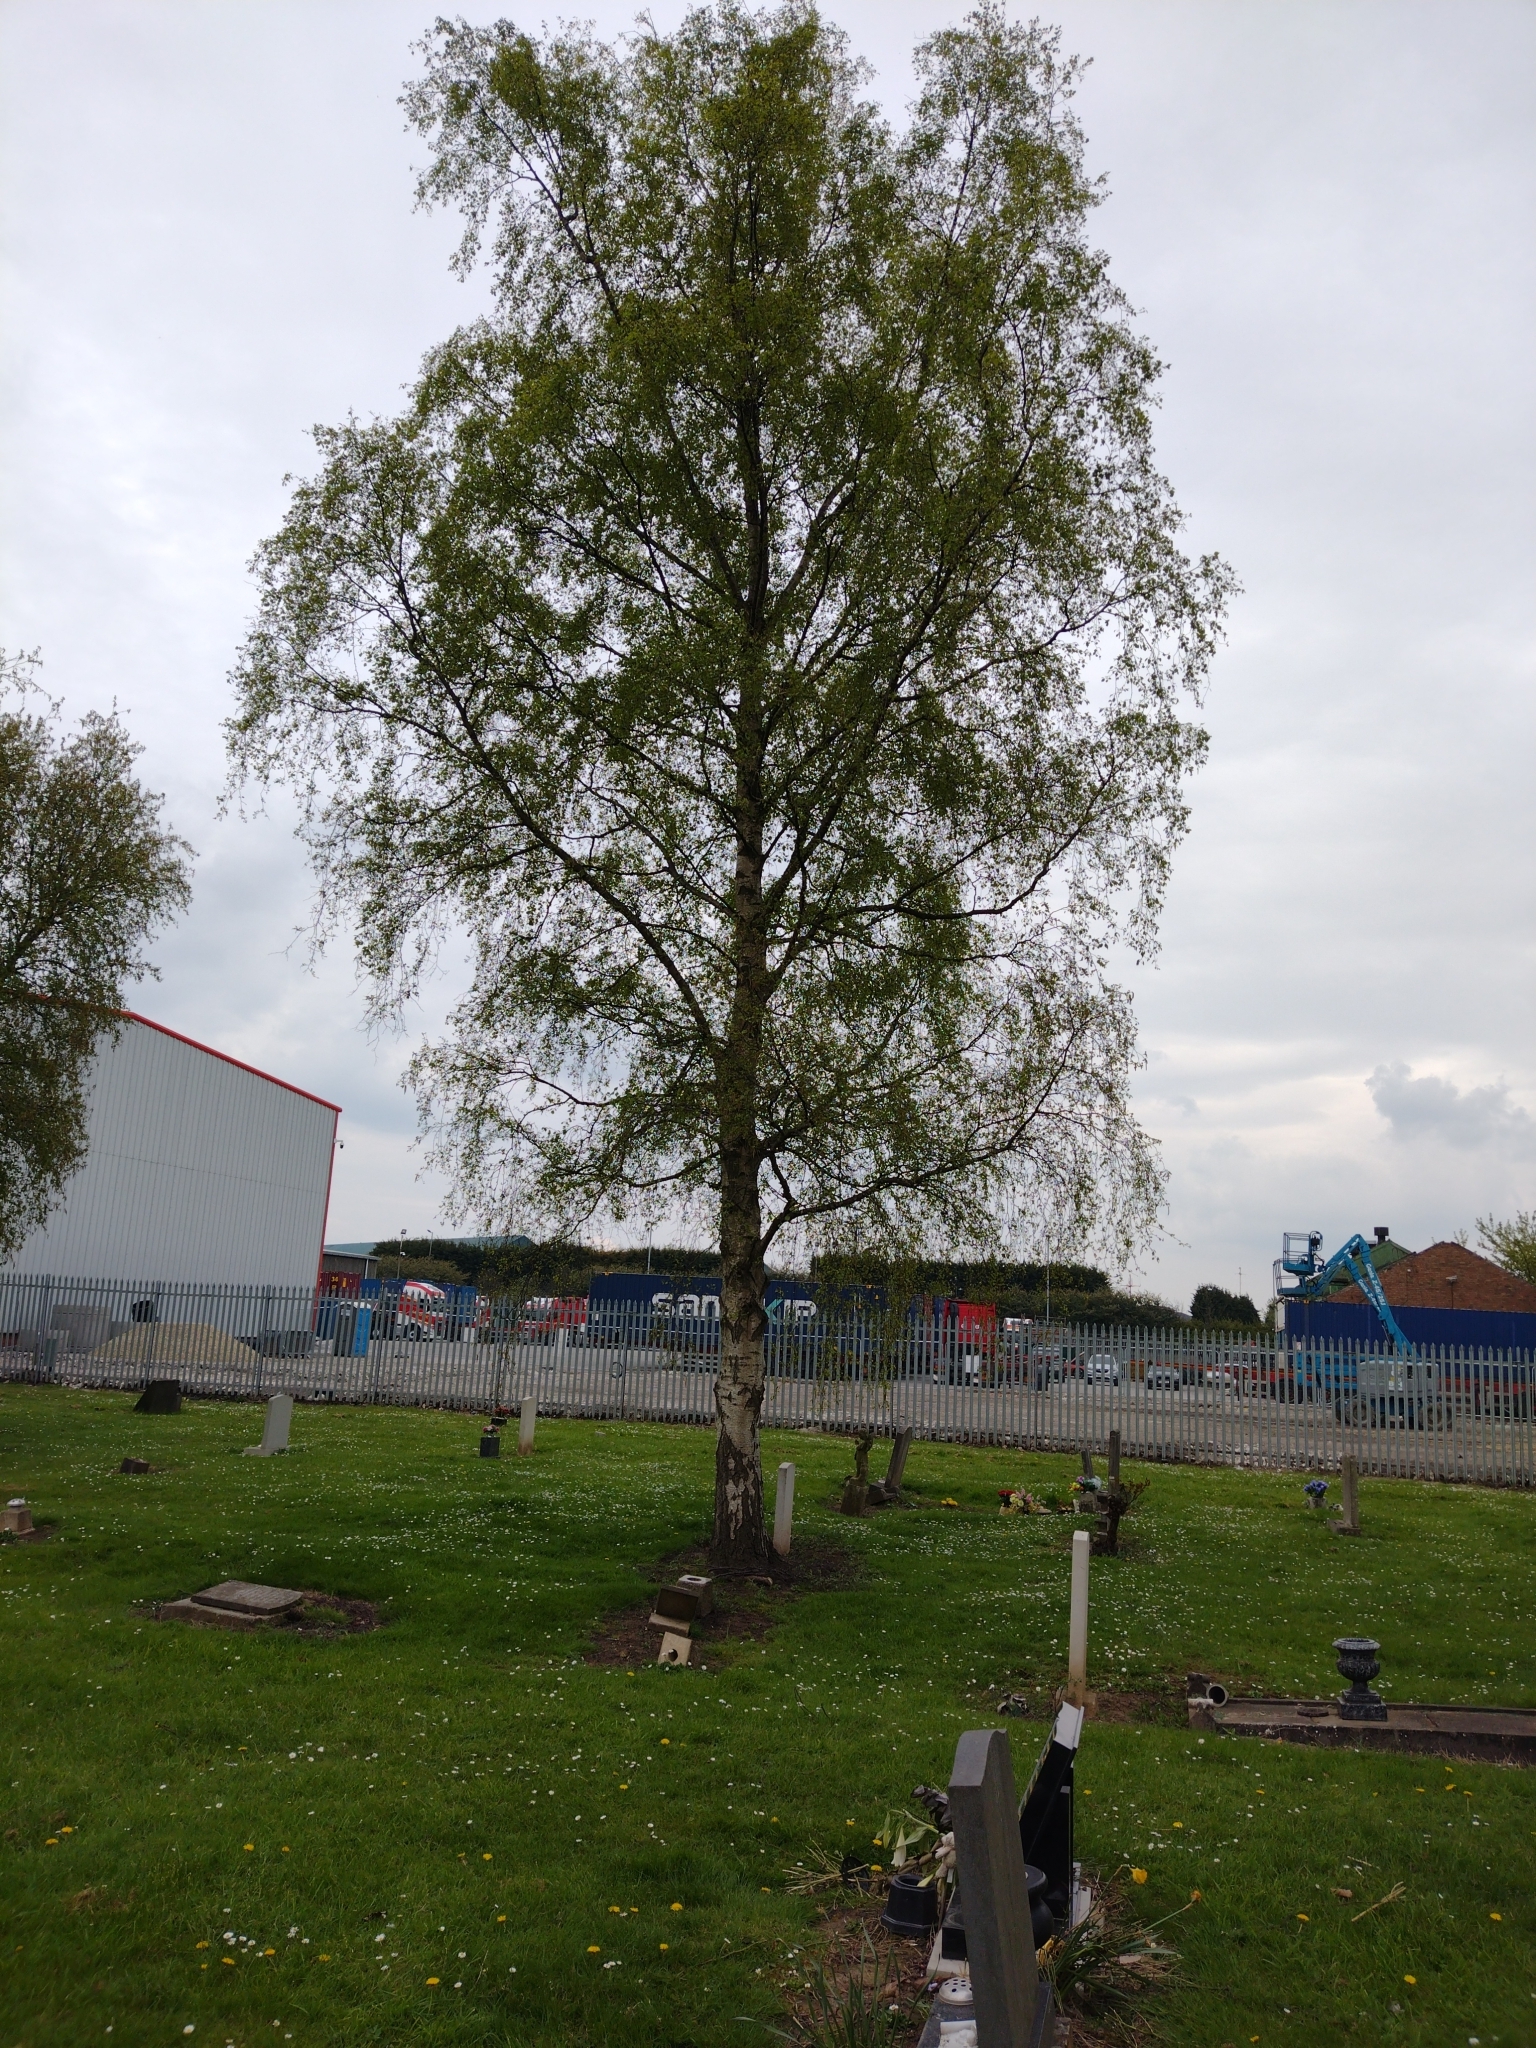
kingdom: Plantae
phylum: Tracheophyta
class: Magnoliopsida
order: Fagales
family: Betulaceae
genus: Betula
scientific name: Betula pendula
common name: Silver birch
